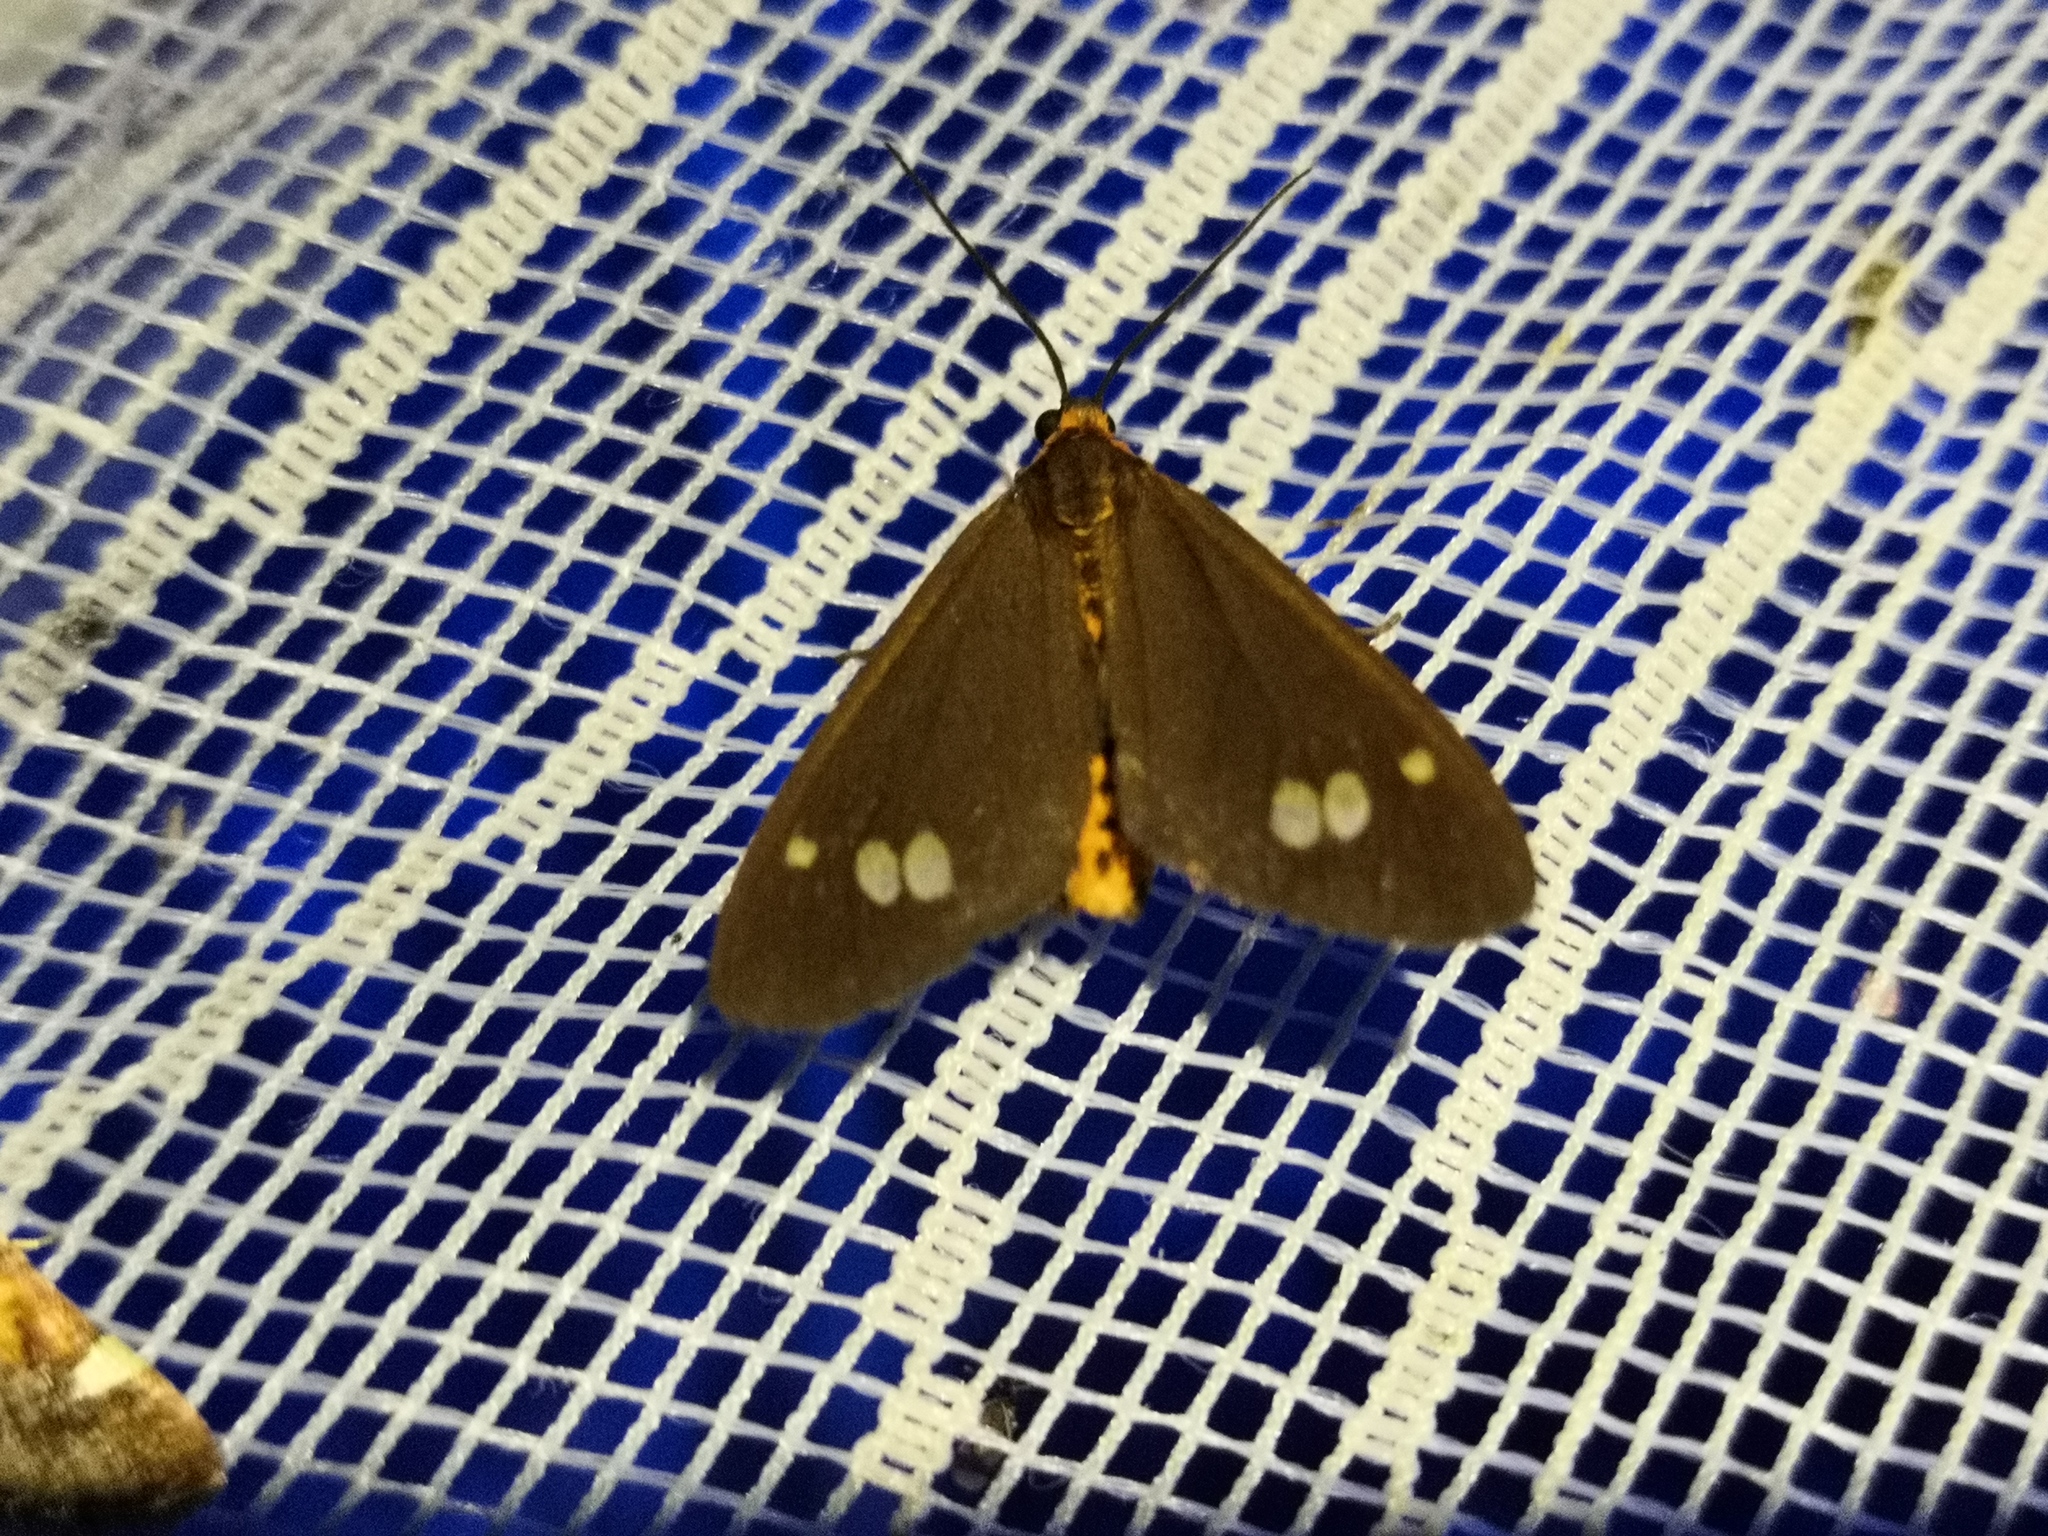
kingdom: Animalia
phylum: Arthropoda
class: Insecta
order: Lepidoptera
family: Erebidae
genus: Dysauxes
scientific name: Dysauxes ancilla
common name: The handmaid
